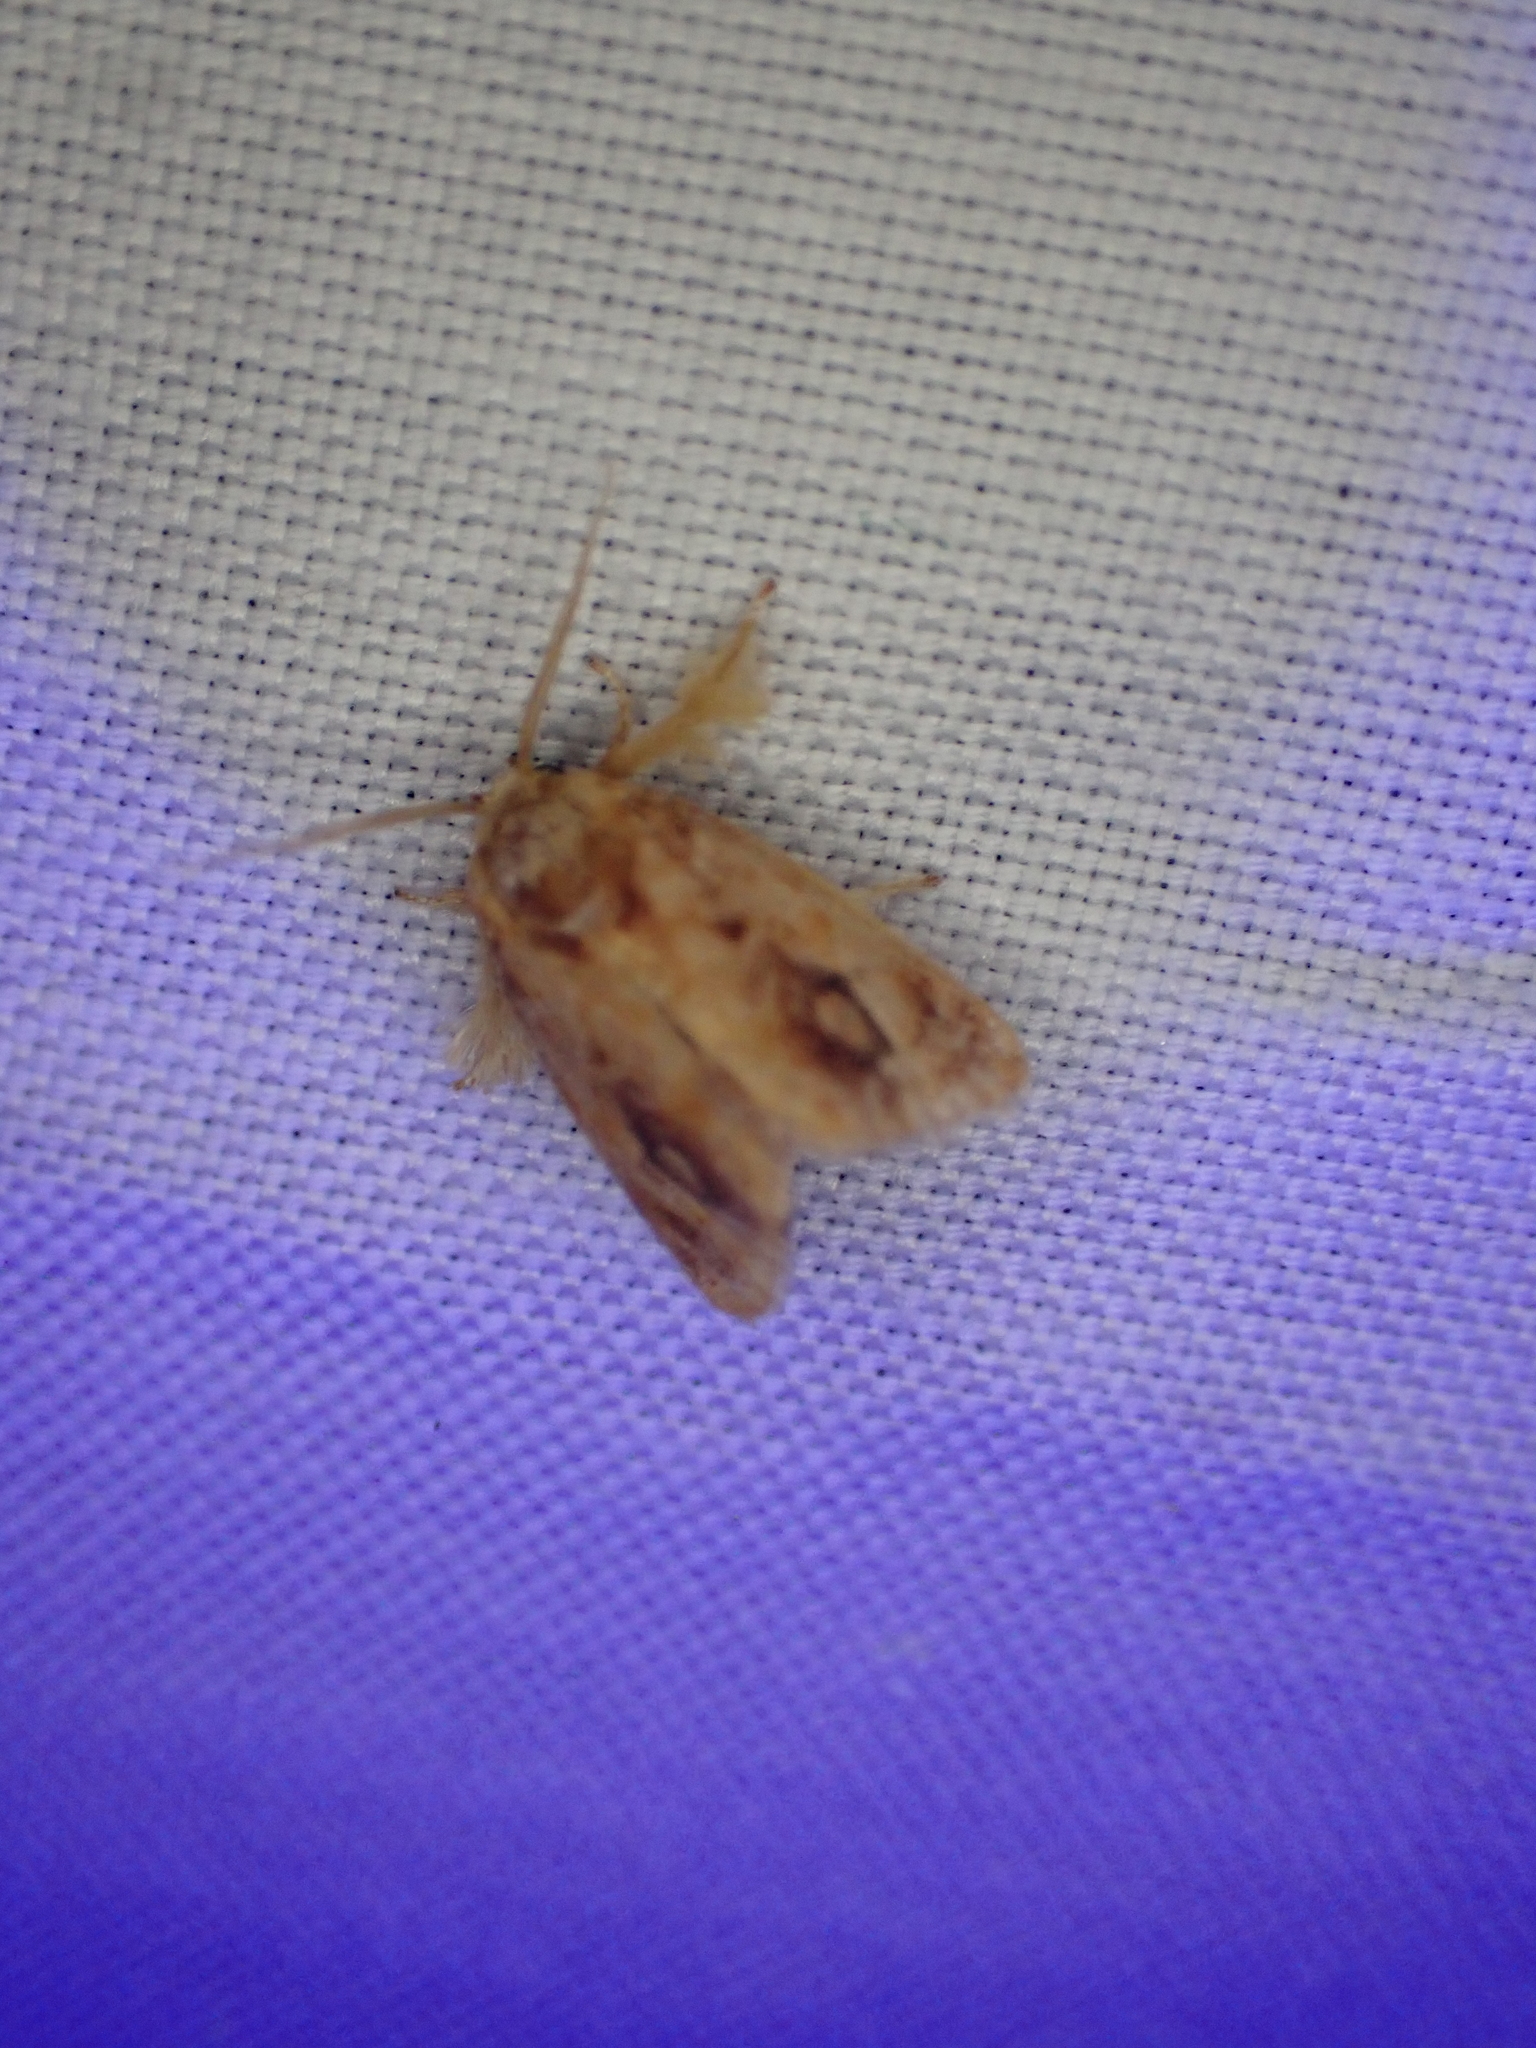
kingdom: Animalia
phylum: Arthropoda
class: Insecta
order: Lepidoptera
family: Limacodidae
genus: Isochaetes
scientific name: Isochaetes beutenmuelleri
